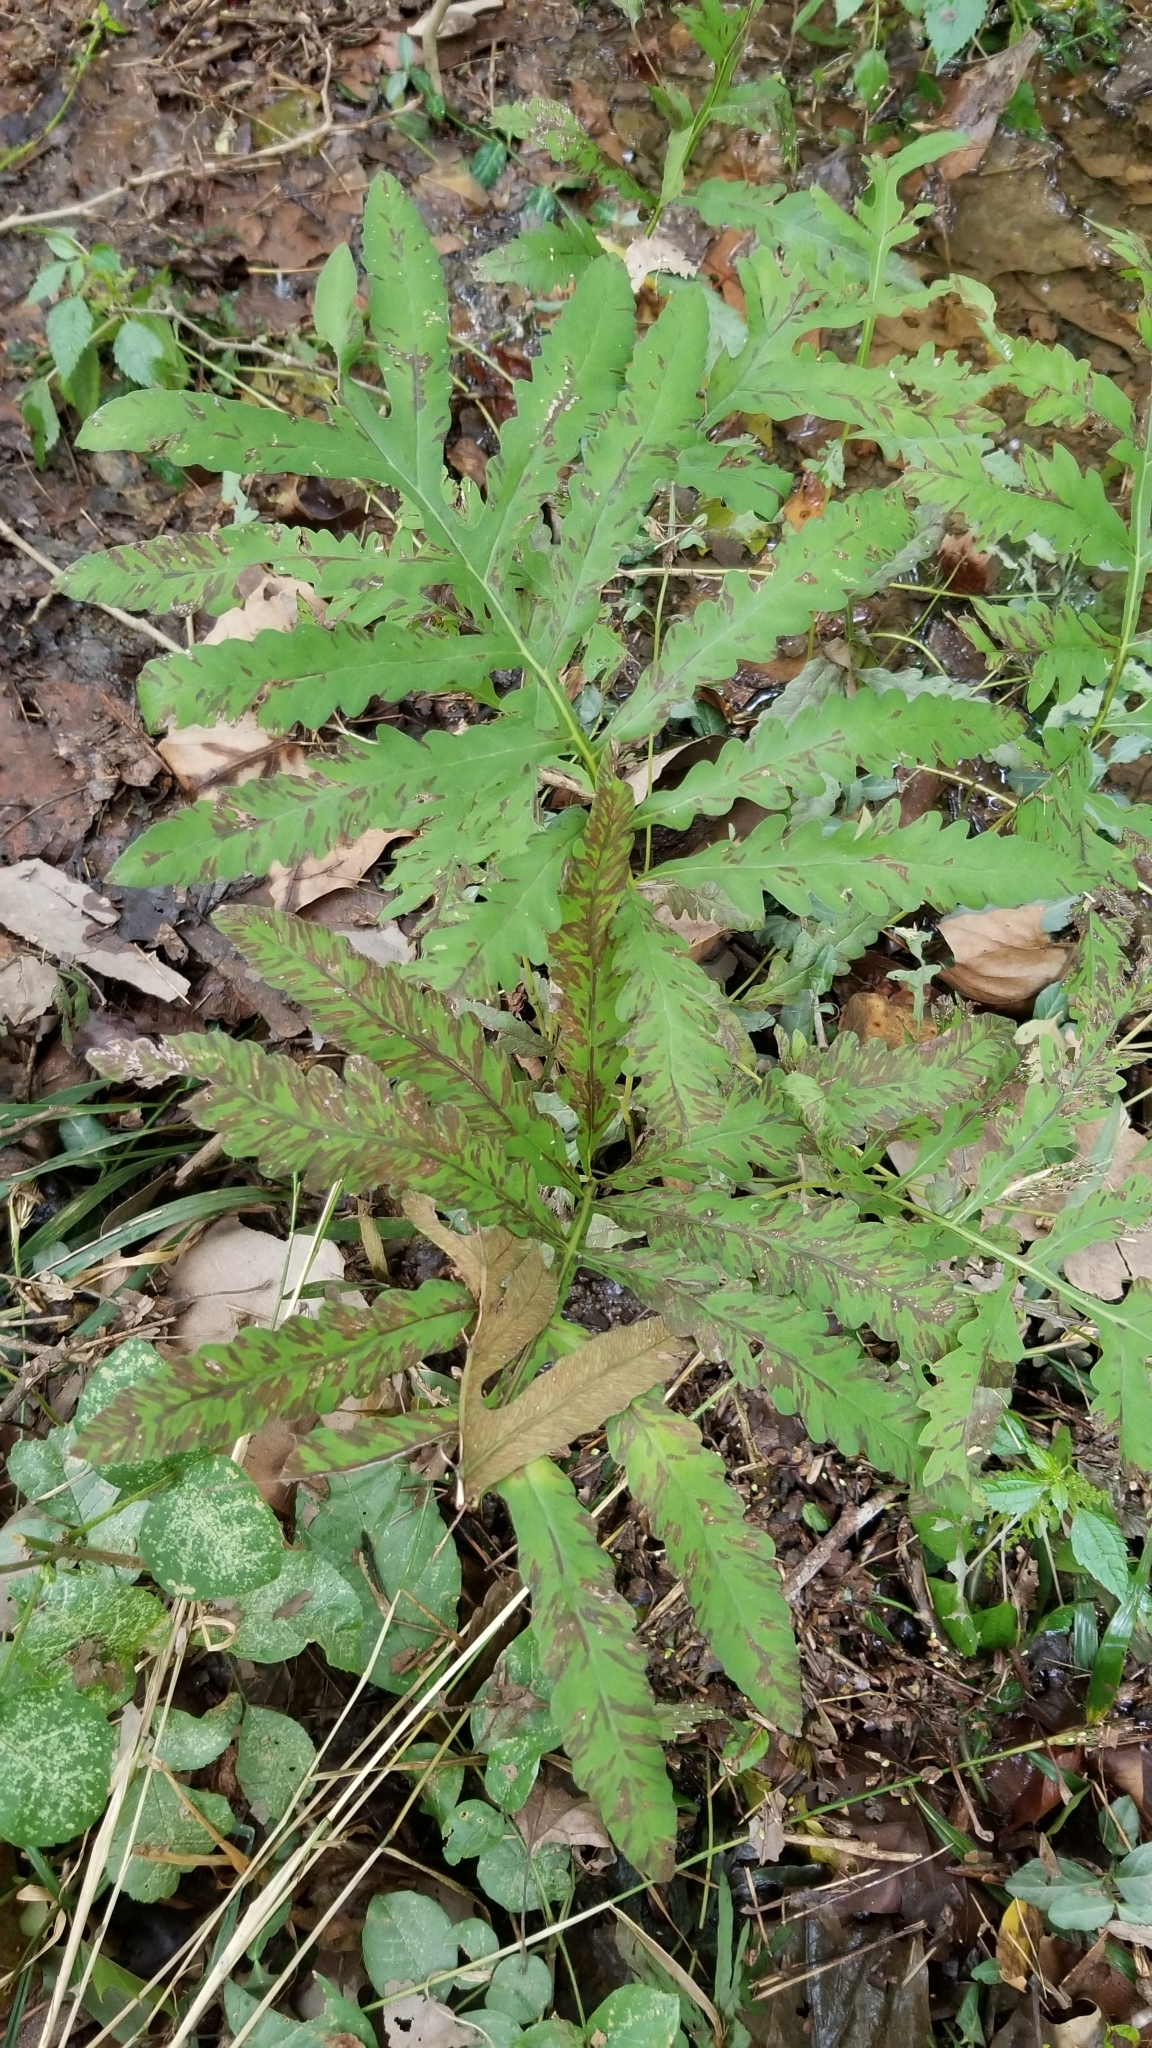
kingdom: Plantae
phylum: Tracheophyta
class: Polypodiopsida
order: Polypodiales
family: Onocleaceae
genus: Onoclea
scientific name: Onoclea sensibilis
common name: Sensitive fern
